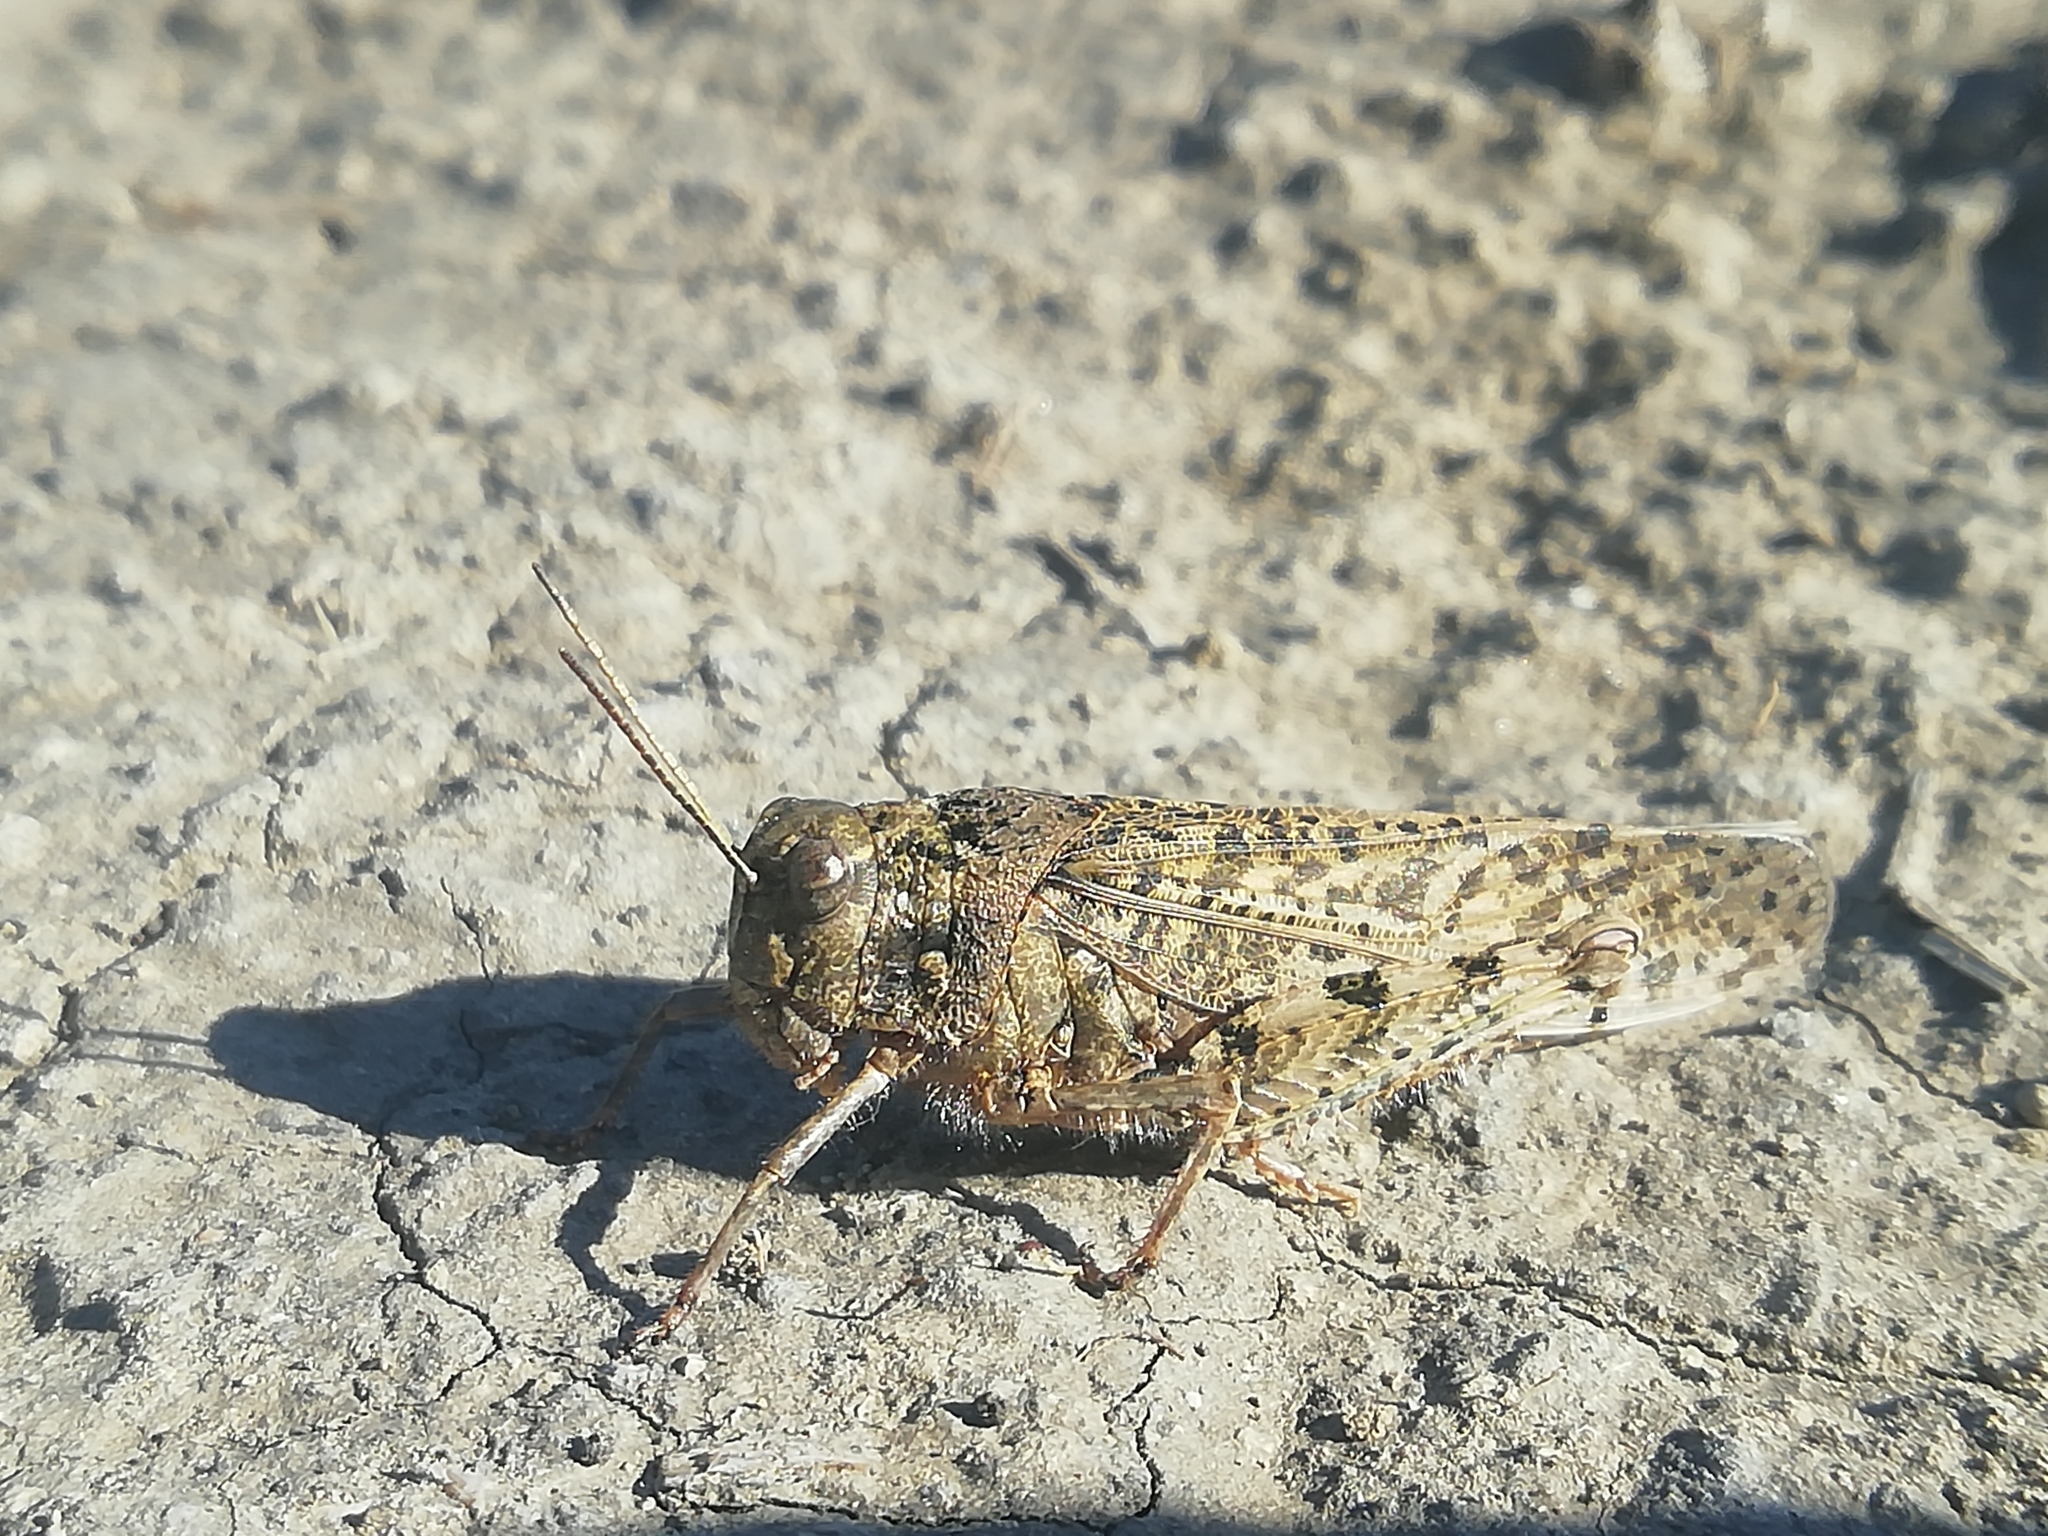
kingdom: Animalia
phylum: Arthropoda
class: Insecta
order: Orthoptera
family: Acrididae
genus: Angaracris
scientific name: Angaracris barabensis
